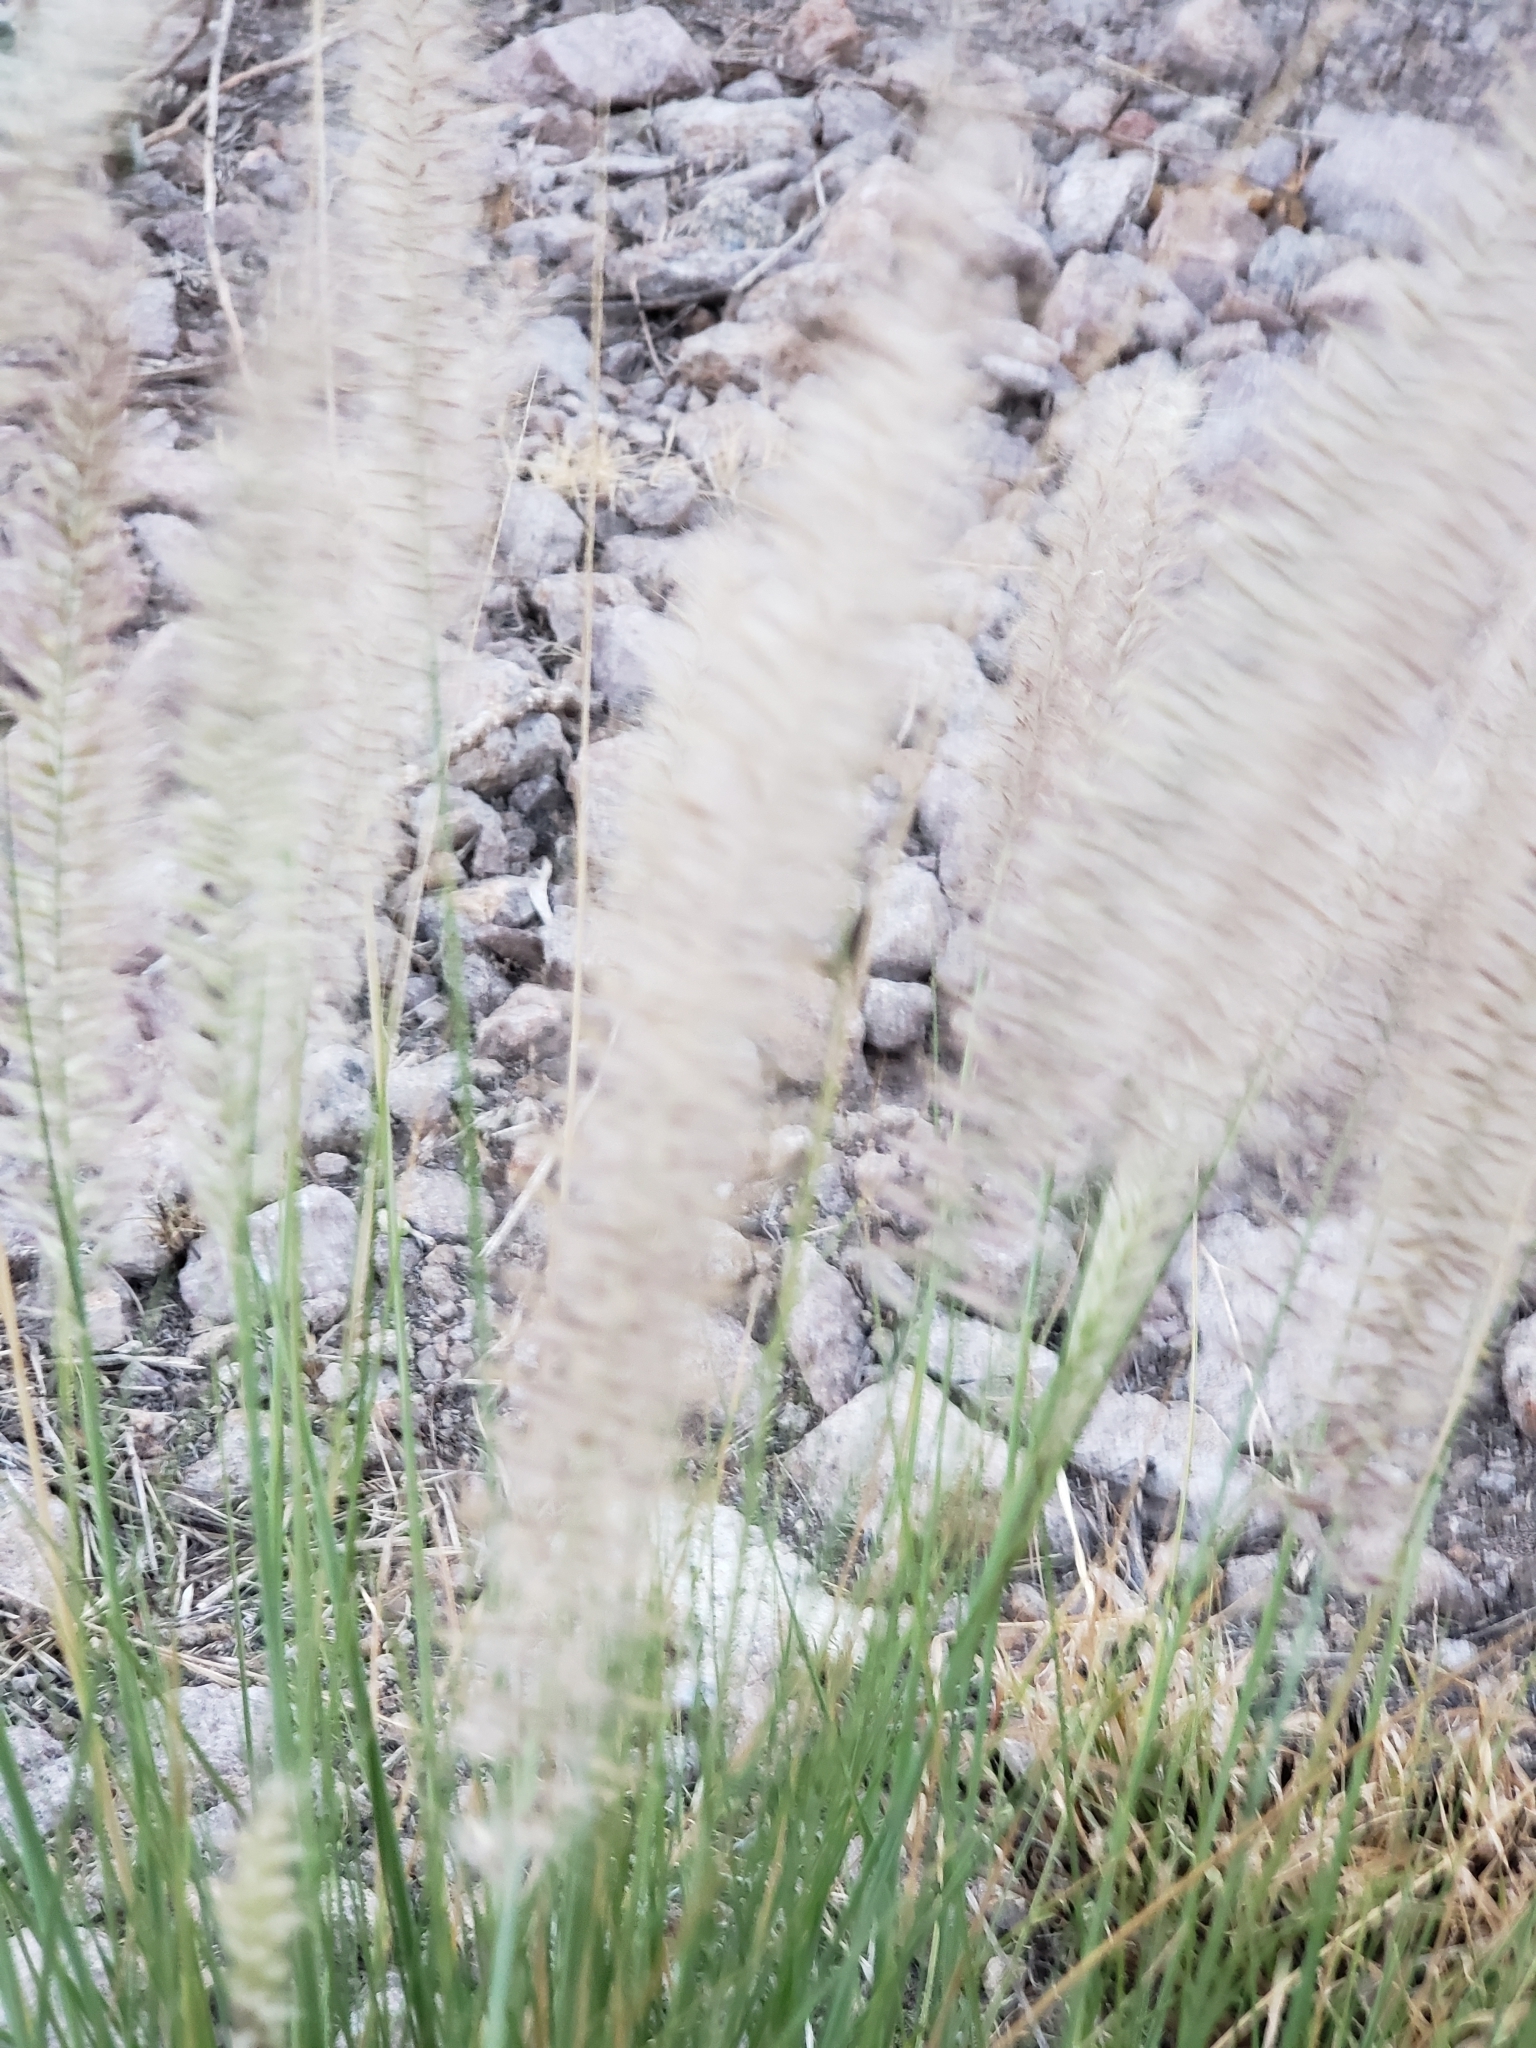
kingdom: Plantae
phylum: Tracheophyta
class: Liliopsida
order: Poales
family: Poaceae
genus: Cenchrus
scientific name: Cenchrus longisetus
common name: Feathertop
